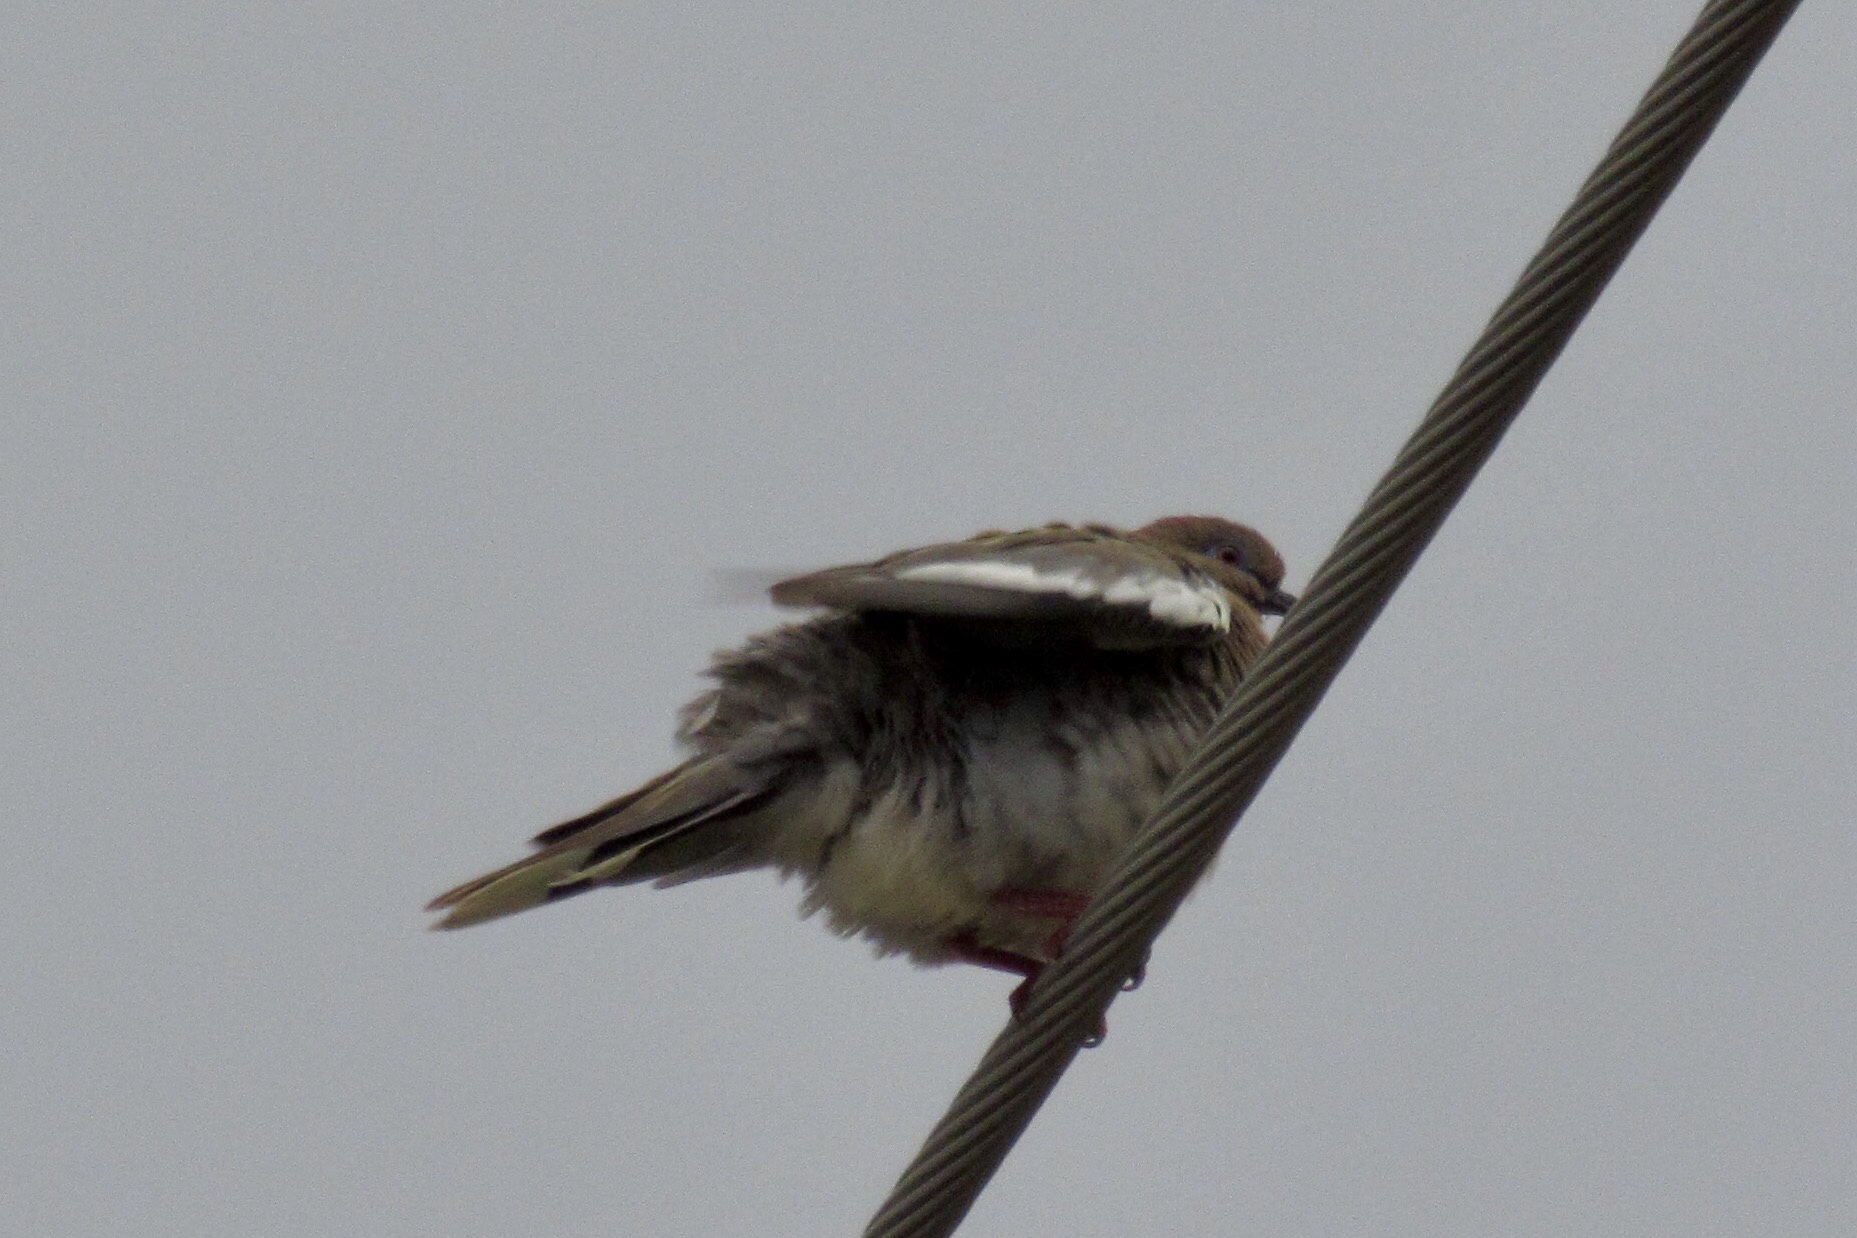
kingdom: Animalia
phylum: Chordata
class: Aves
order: Columbiformes
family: Columbidae
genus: Zenaida
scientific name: Zenaida asiatica
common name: White-winged dove
